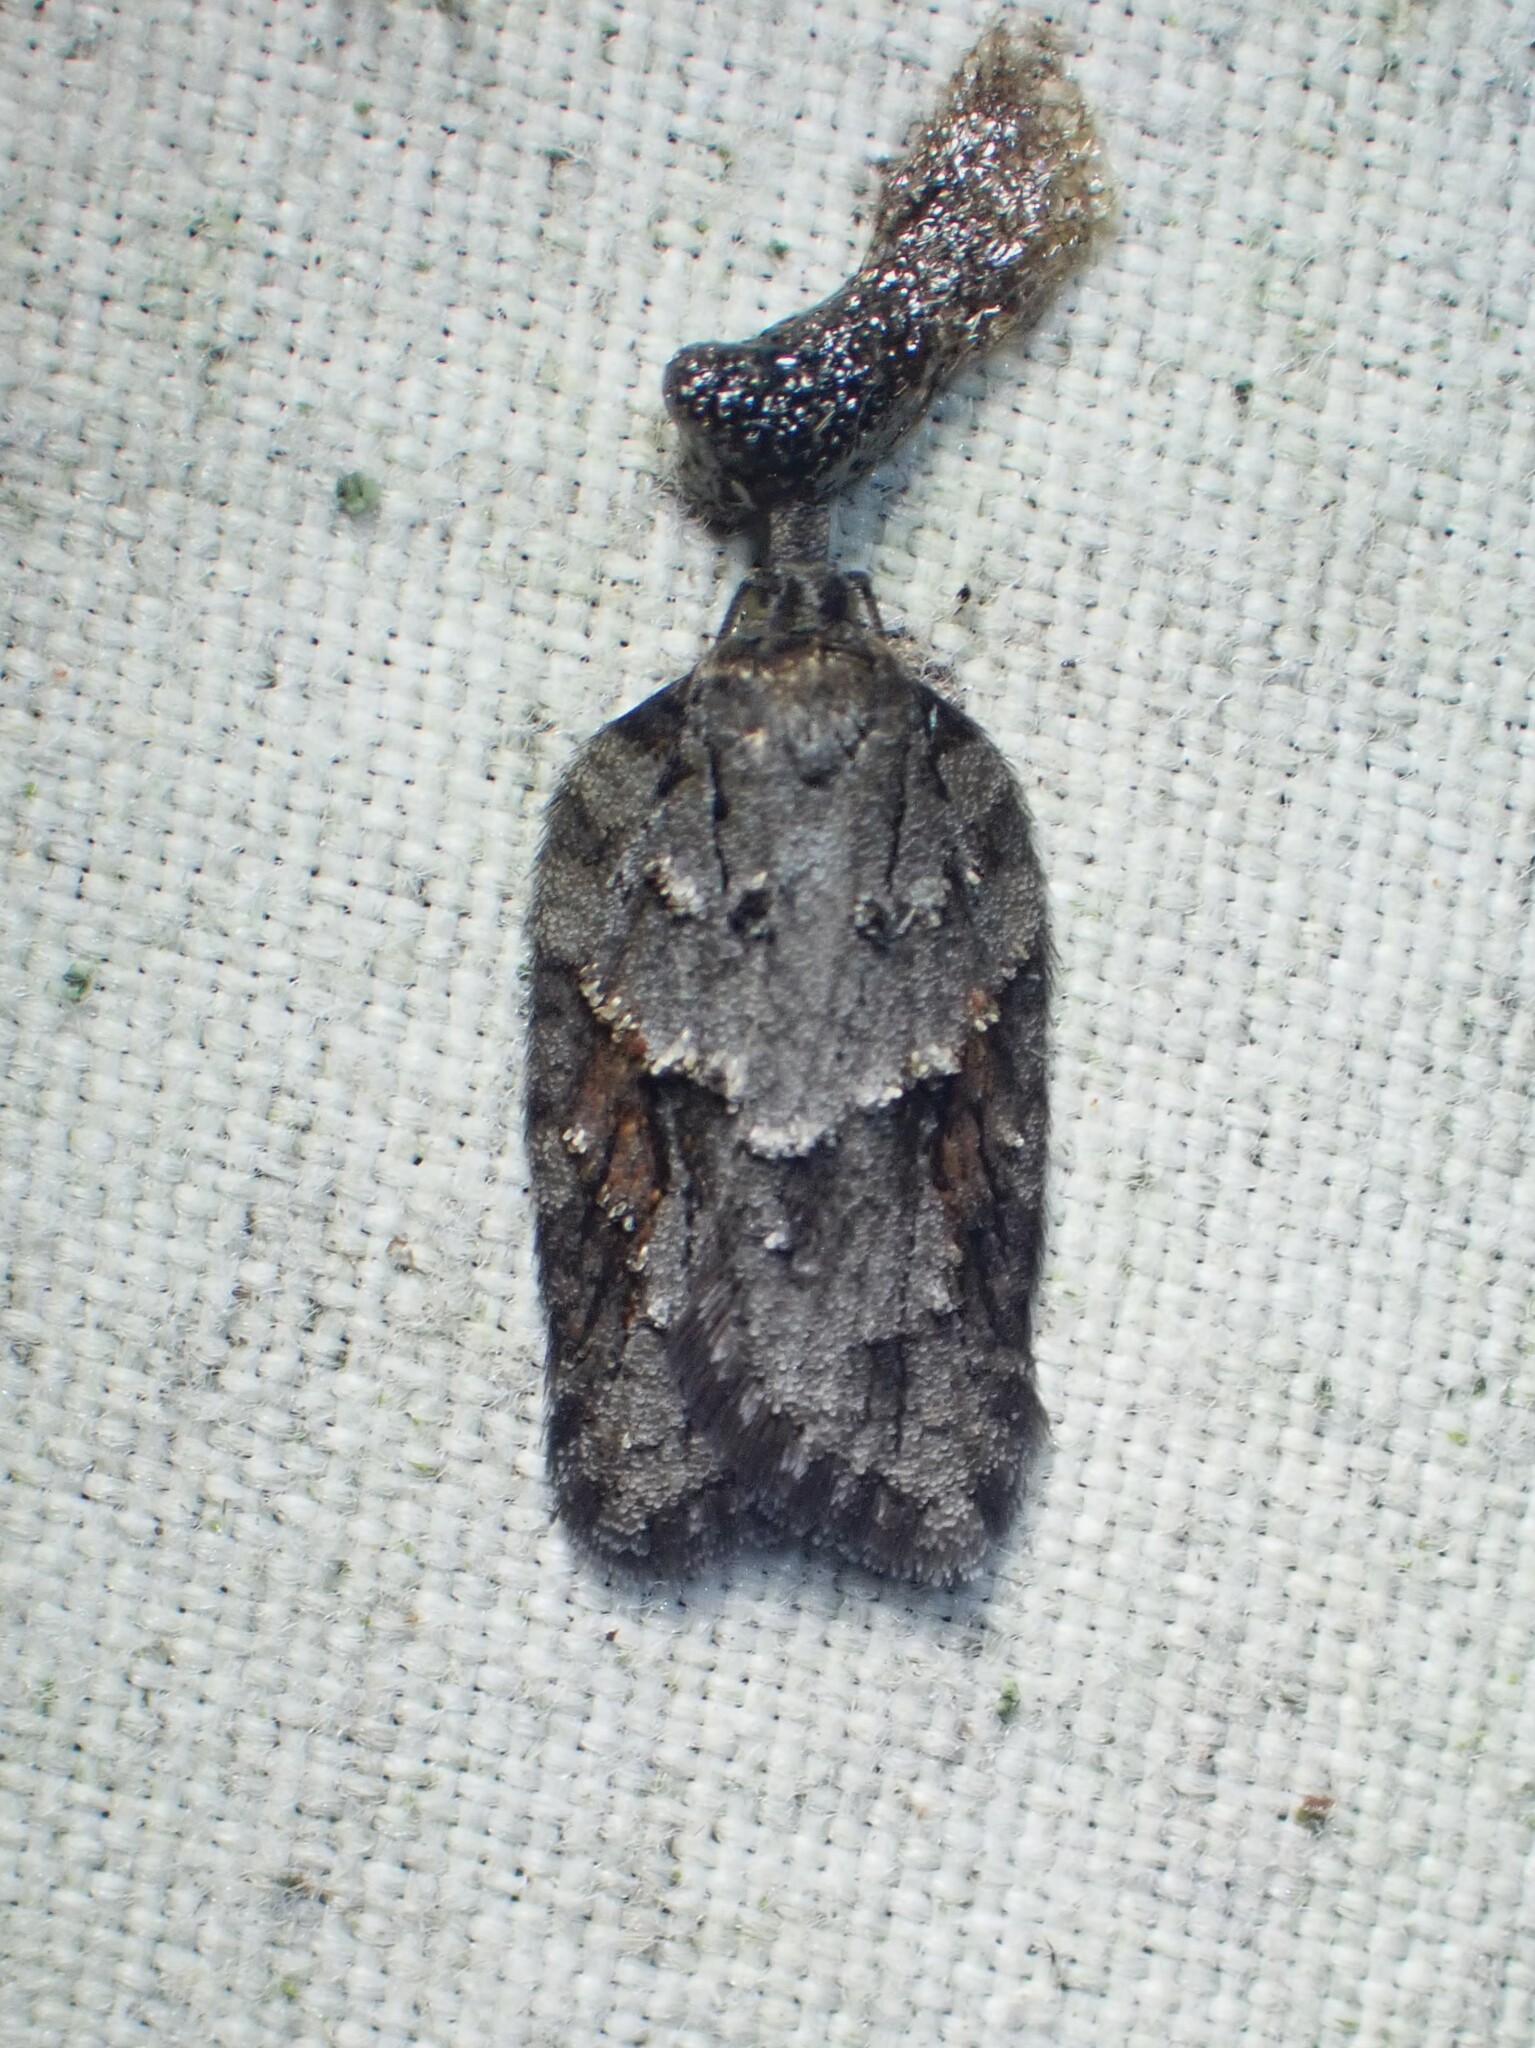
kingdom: Animalia
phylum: Arthropoda
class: Insecta
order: Lepidoptera
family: Tortricidae
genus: Acleris
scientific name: Acleris ptychogrammos
